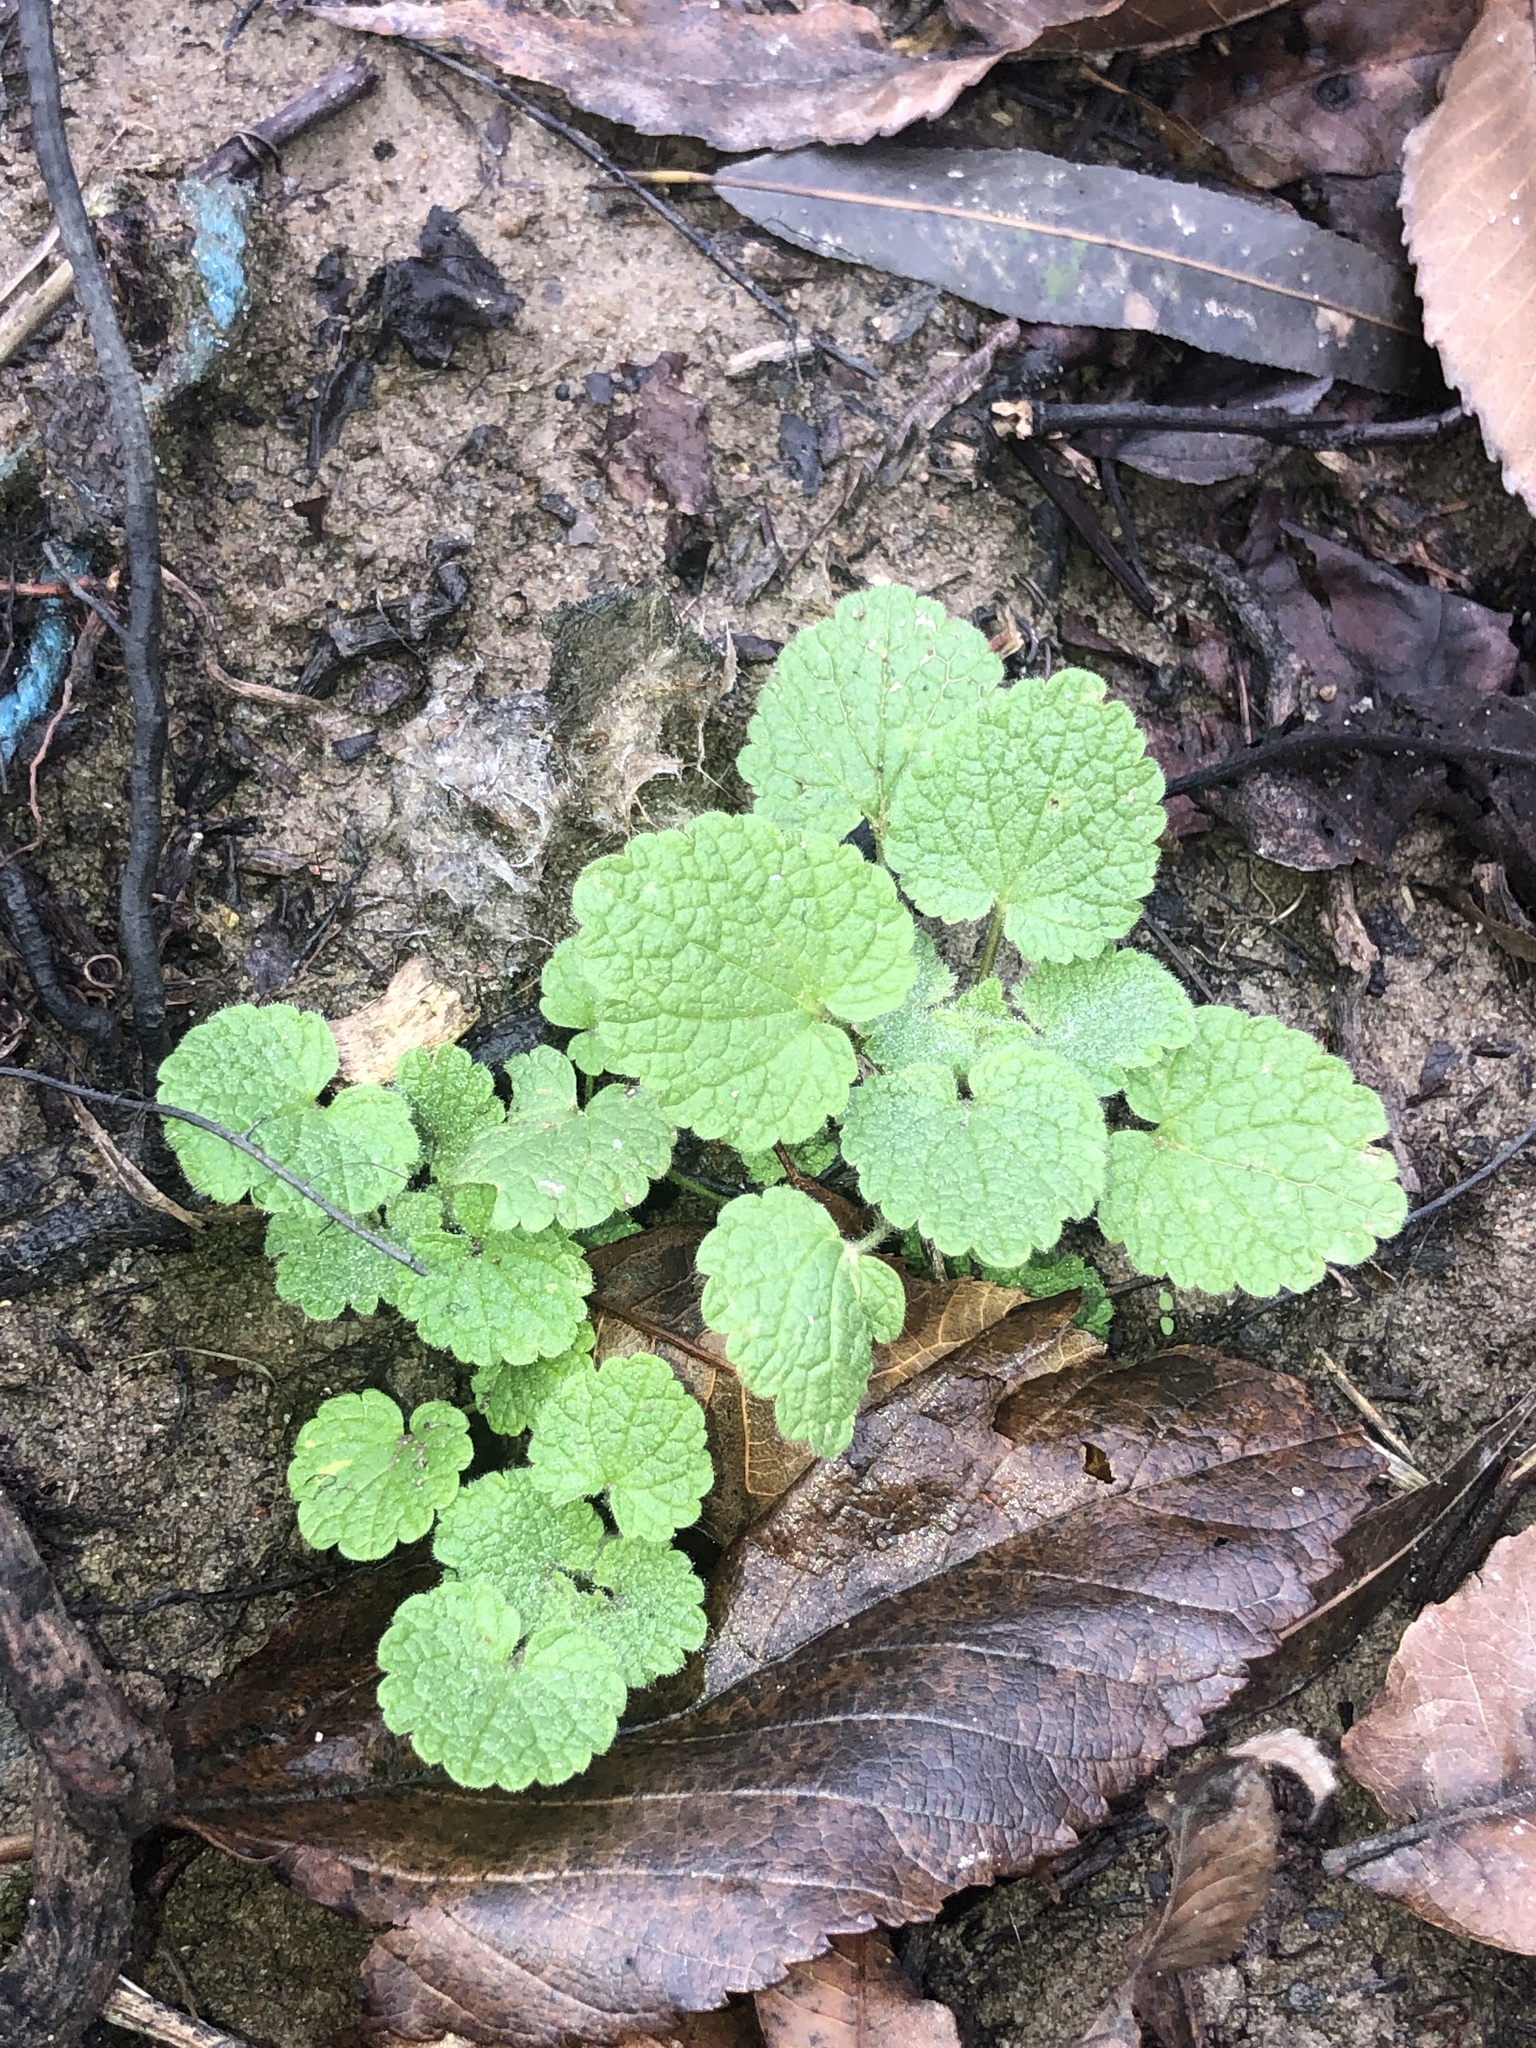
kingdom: Plantae
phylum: Tracheophyta
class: Magnoliopsida
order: Lamiales
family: Lamiaceae
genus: Lamium
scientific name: Lamium purpureum
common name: Red dead-nettle
